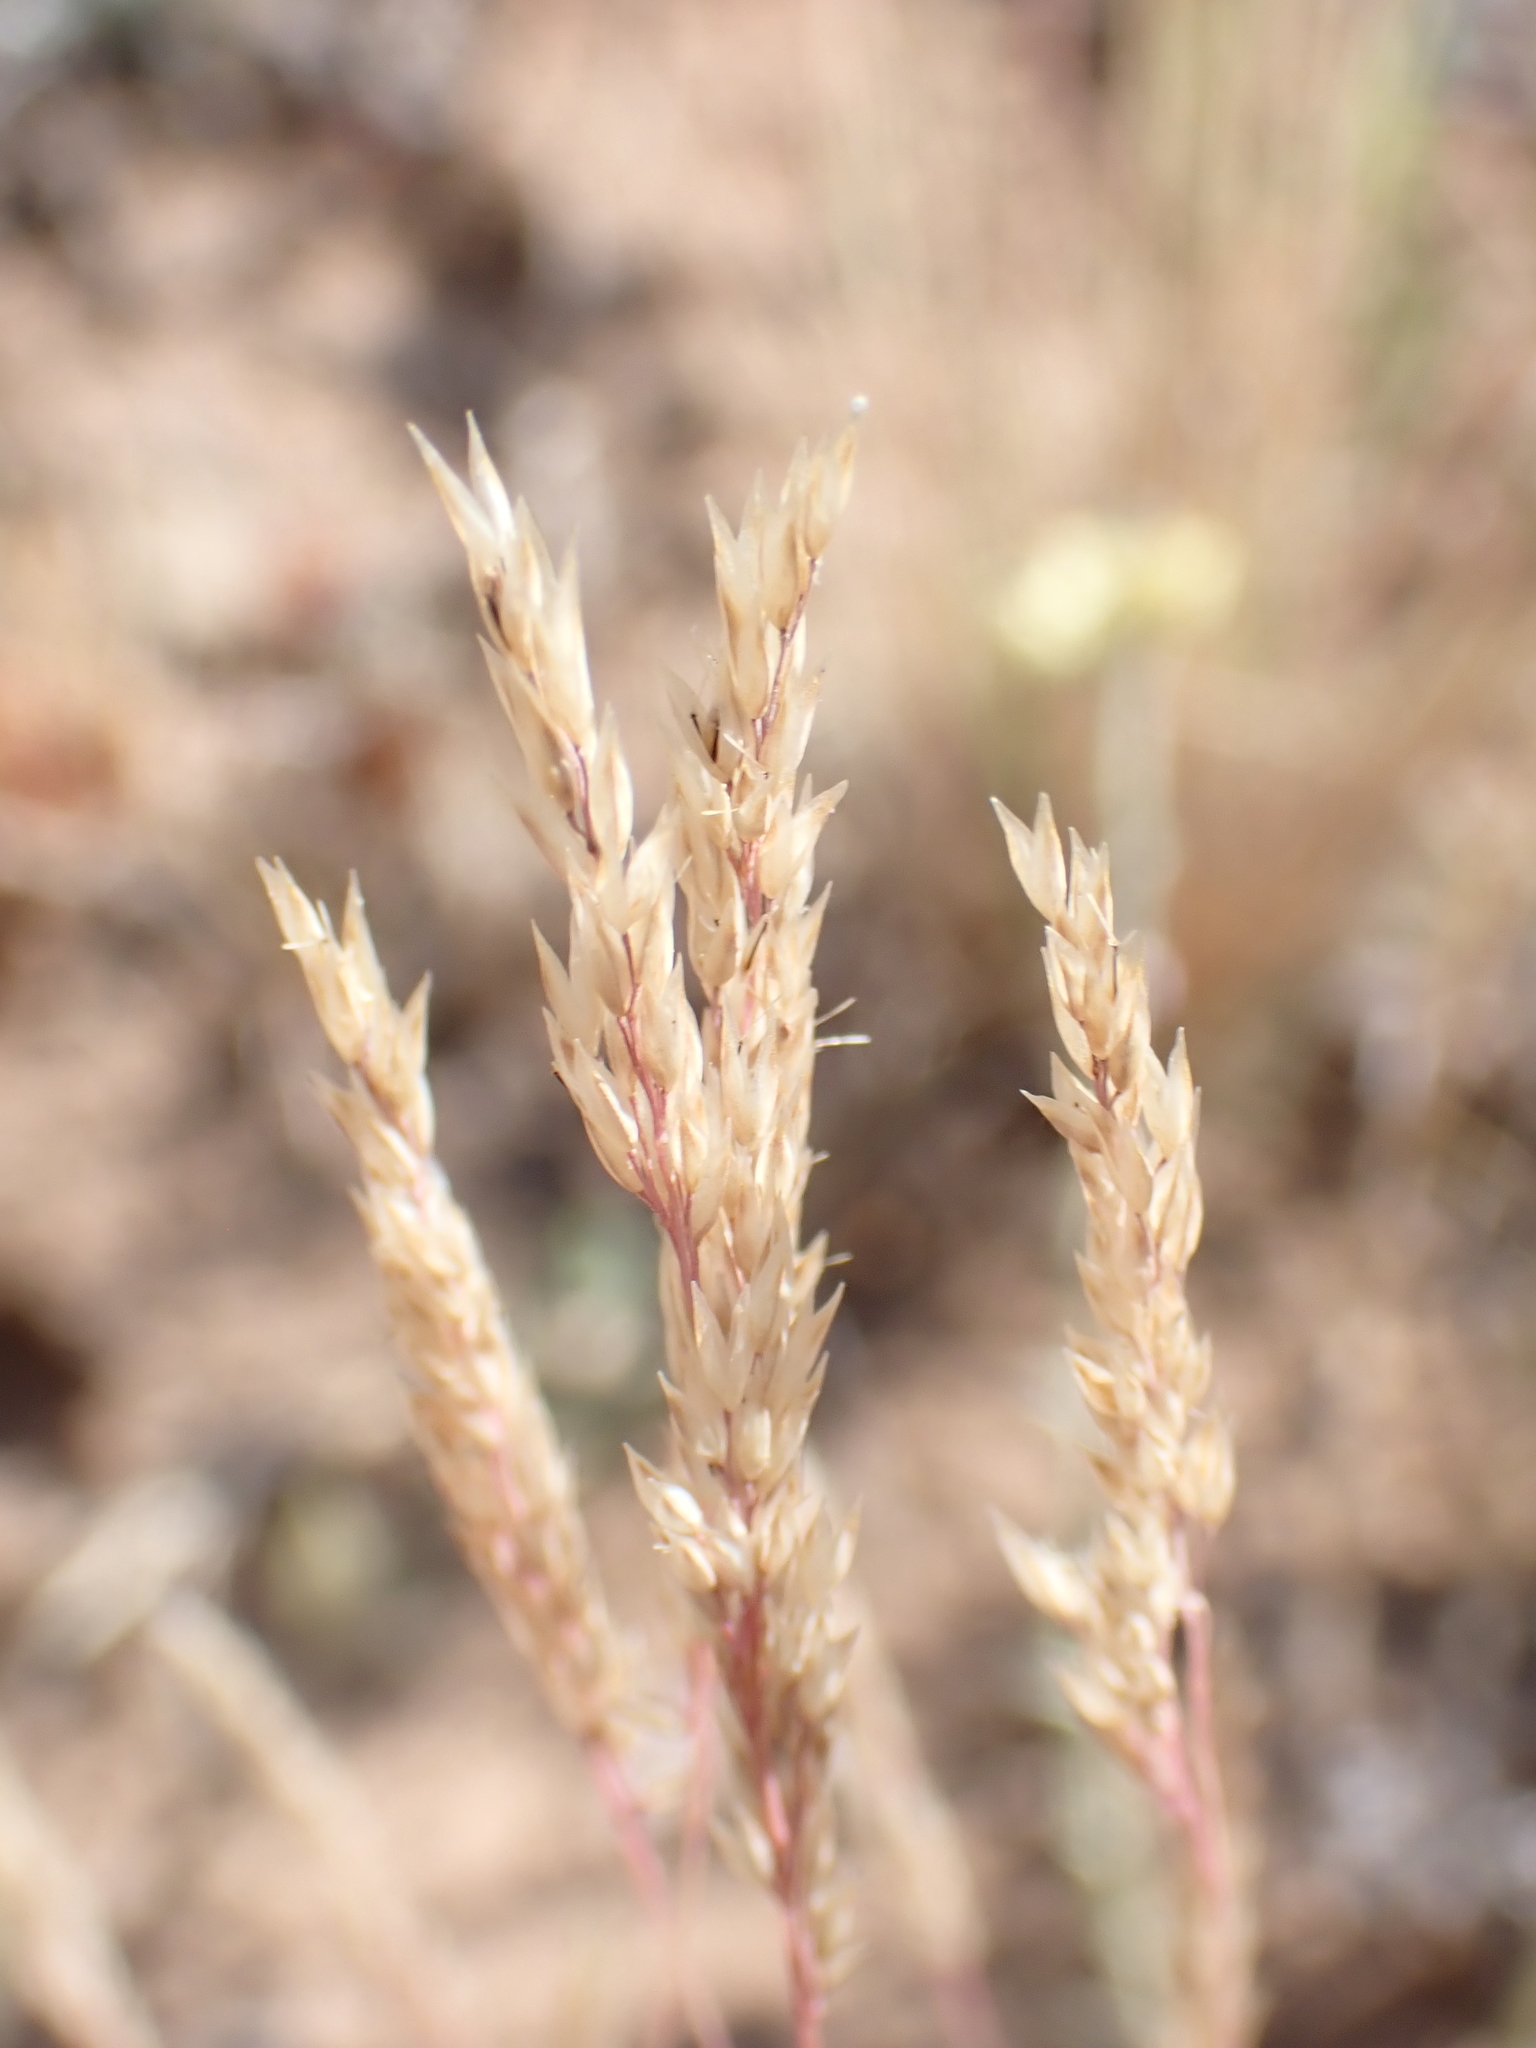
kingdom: Plantae
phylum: Tracheophyta
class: Liliopsida
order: Poales
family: Poaceae
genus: Corynephorus
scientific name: Corynephorus canescens
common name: Grey hair-grass
